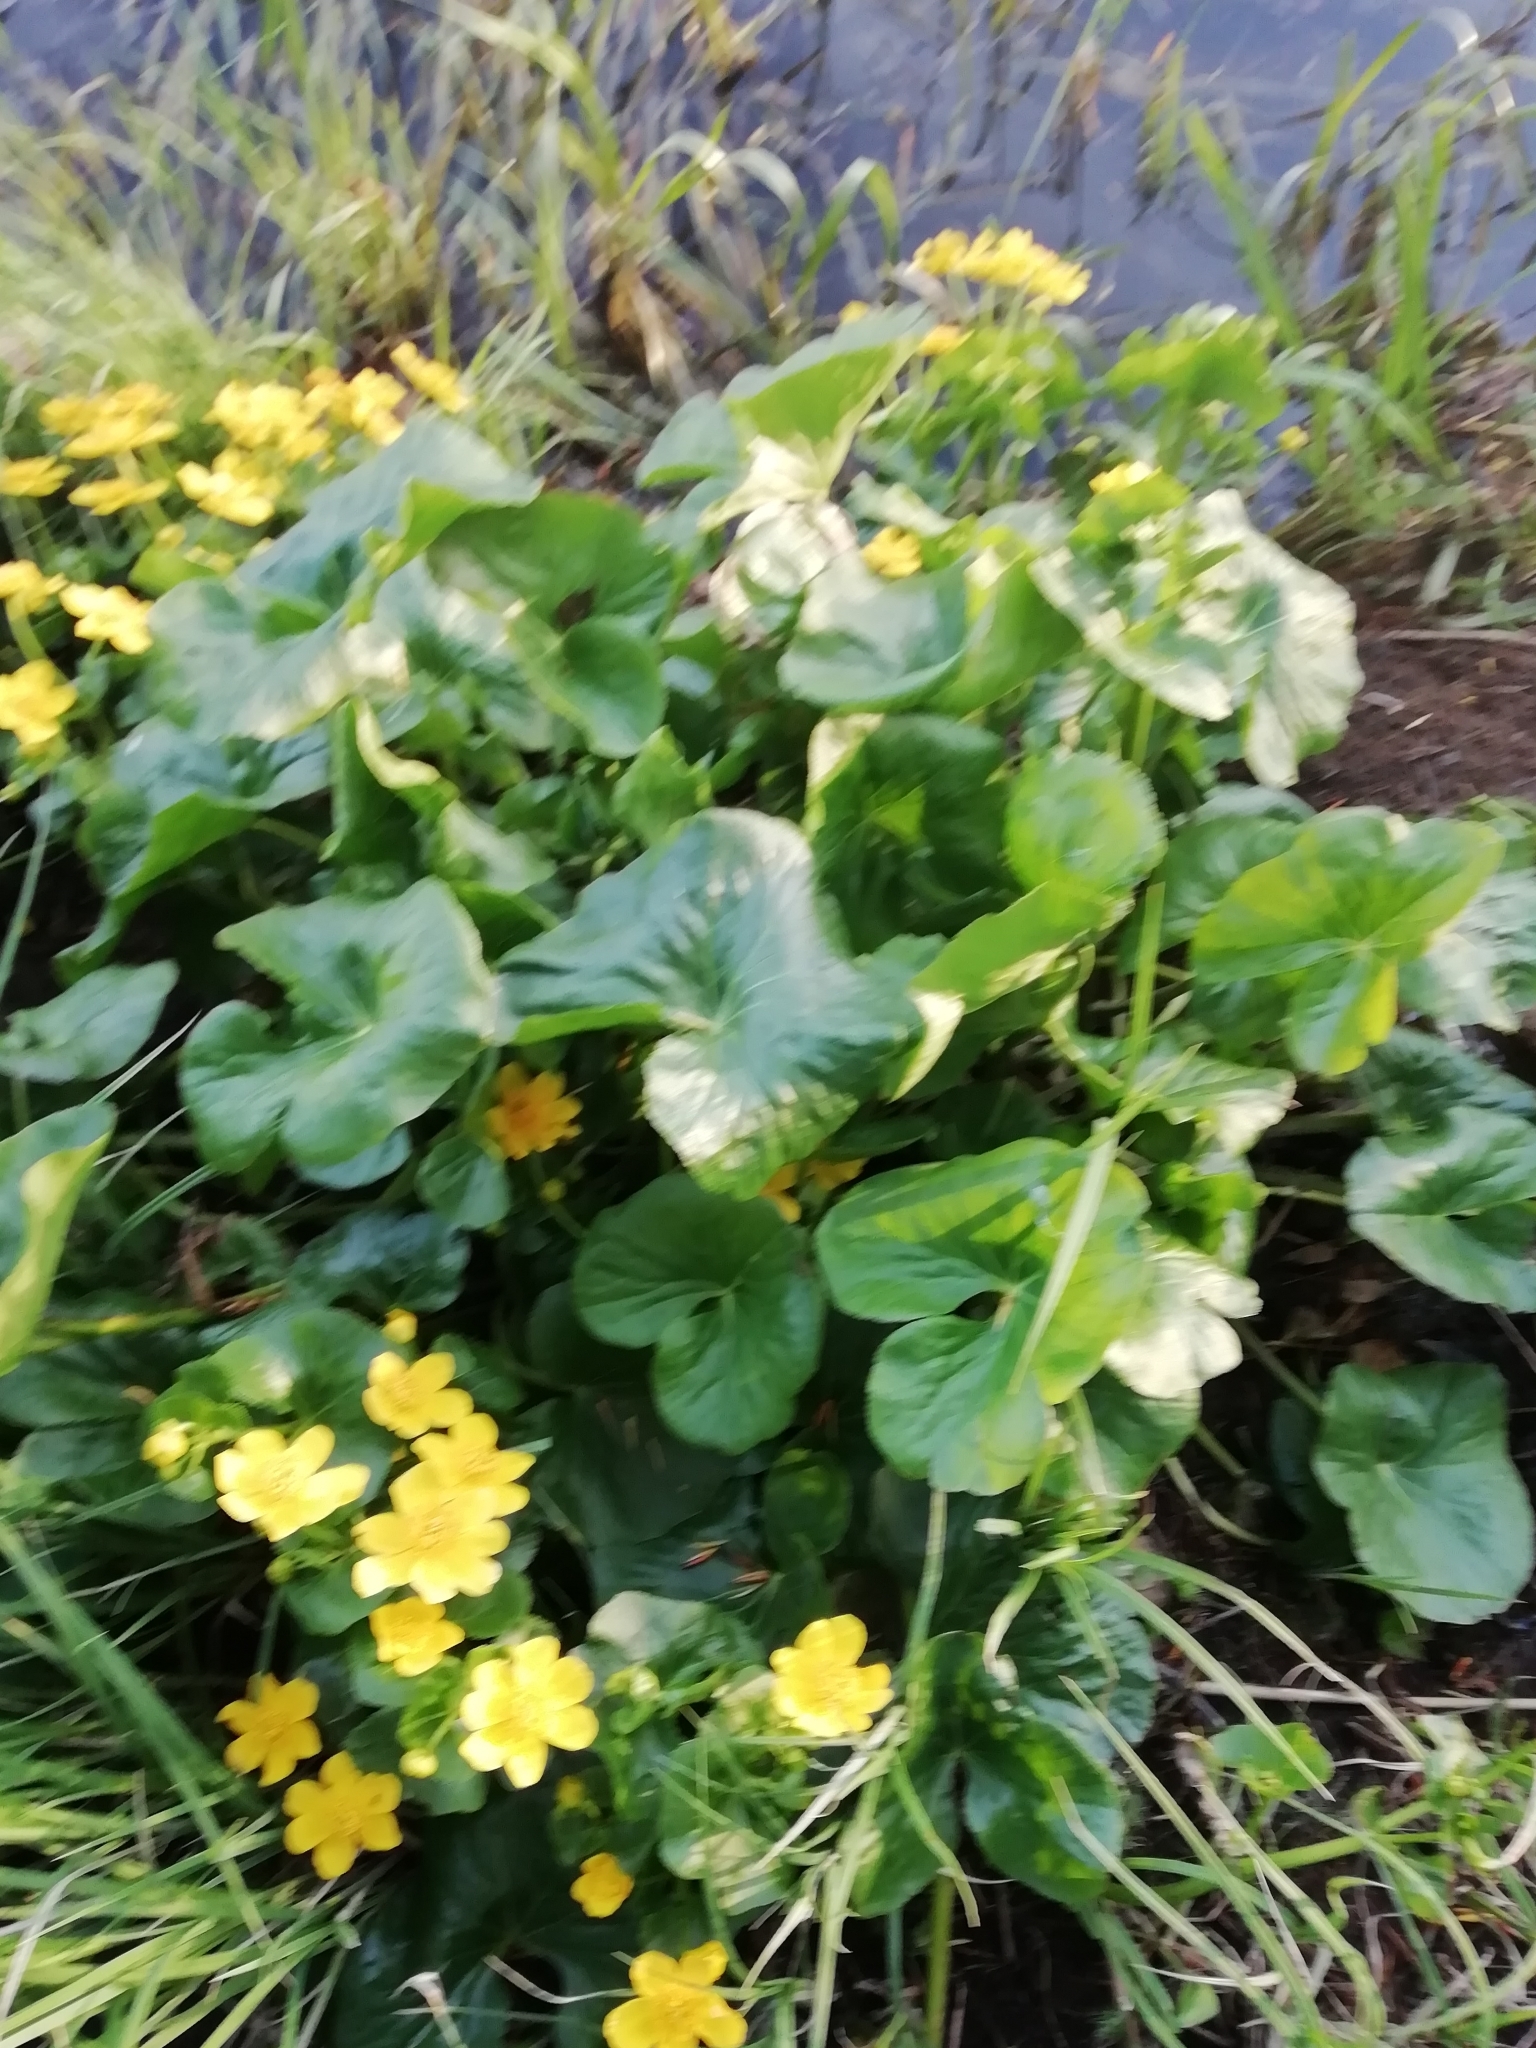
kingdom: Plantae
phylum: Tracheophyta
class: Magnoliopsida
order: Ranunculales
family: Ranunculaceae
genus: Caltha
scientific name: Caltha palustris
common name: Marsh marigold
